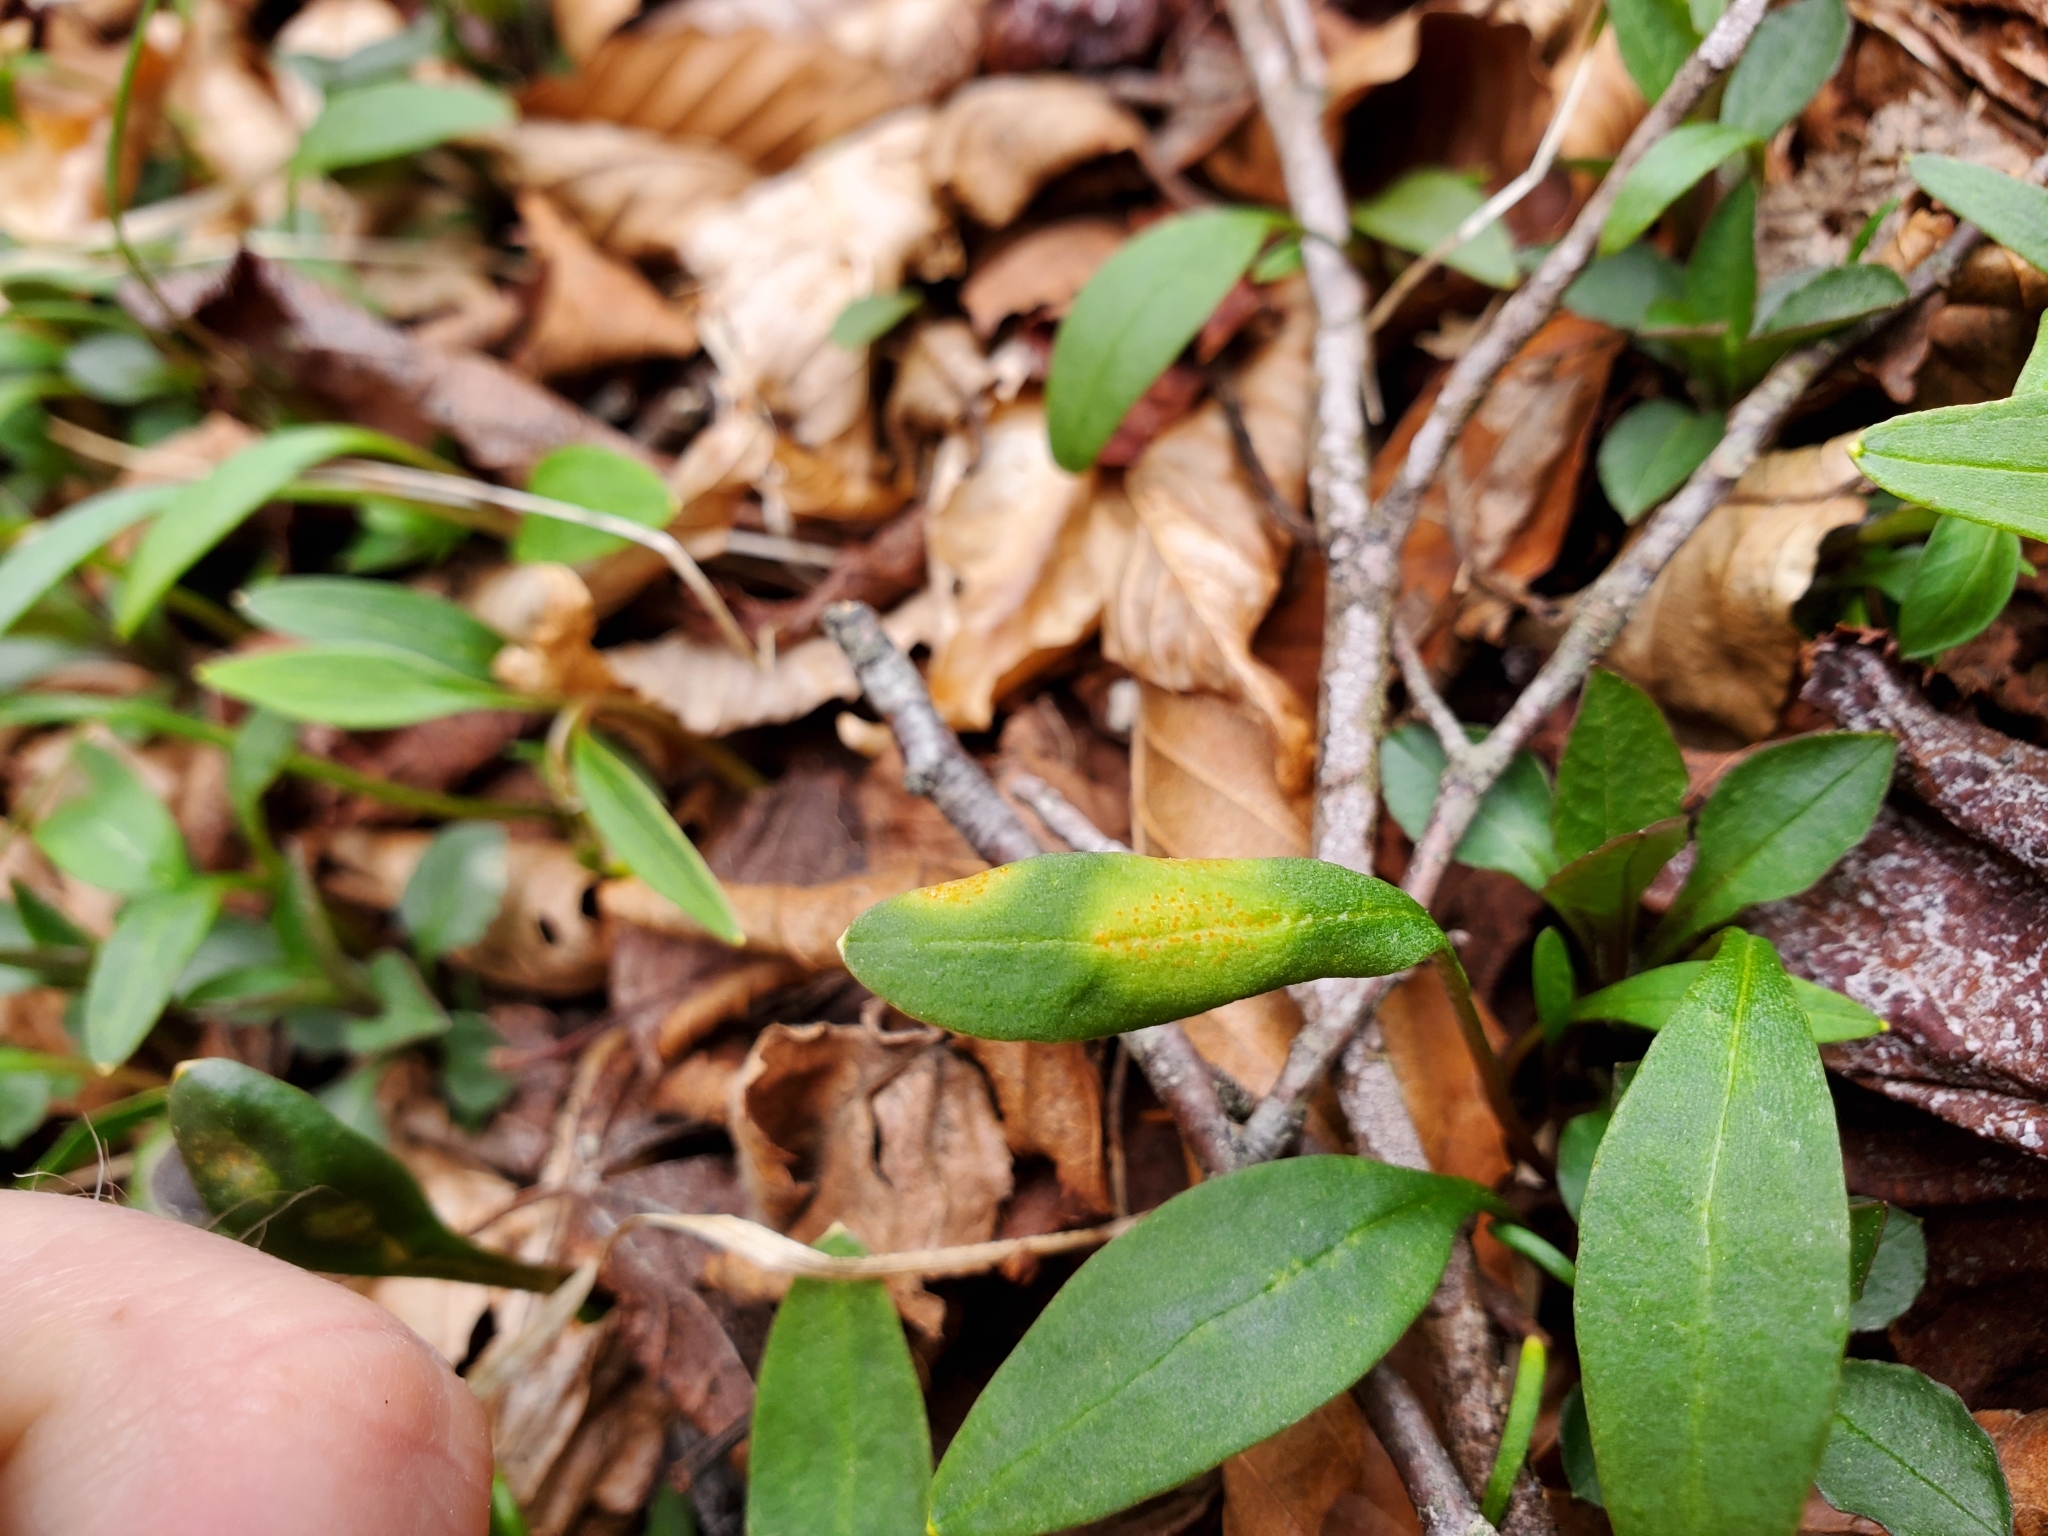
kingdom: Fungi
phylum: Basidiomycota
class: Pucciniomycetes
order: Pucciniales
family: Pucciniaceae
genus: Puccinia
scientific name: Puccinia mariae-wilsoniae
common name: Spring beauty rust
